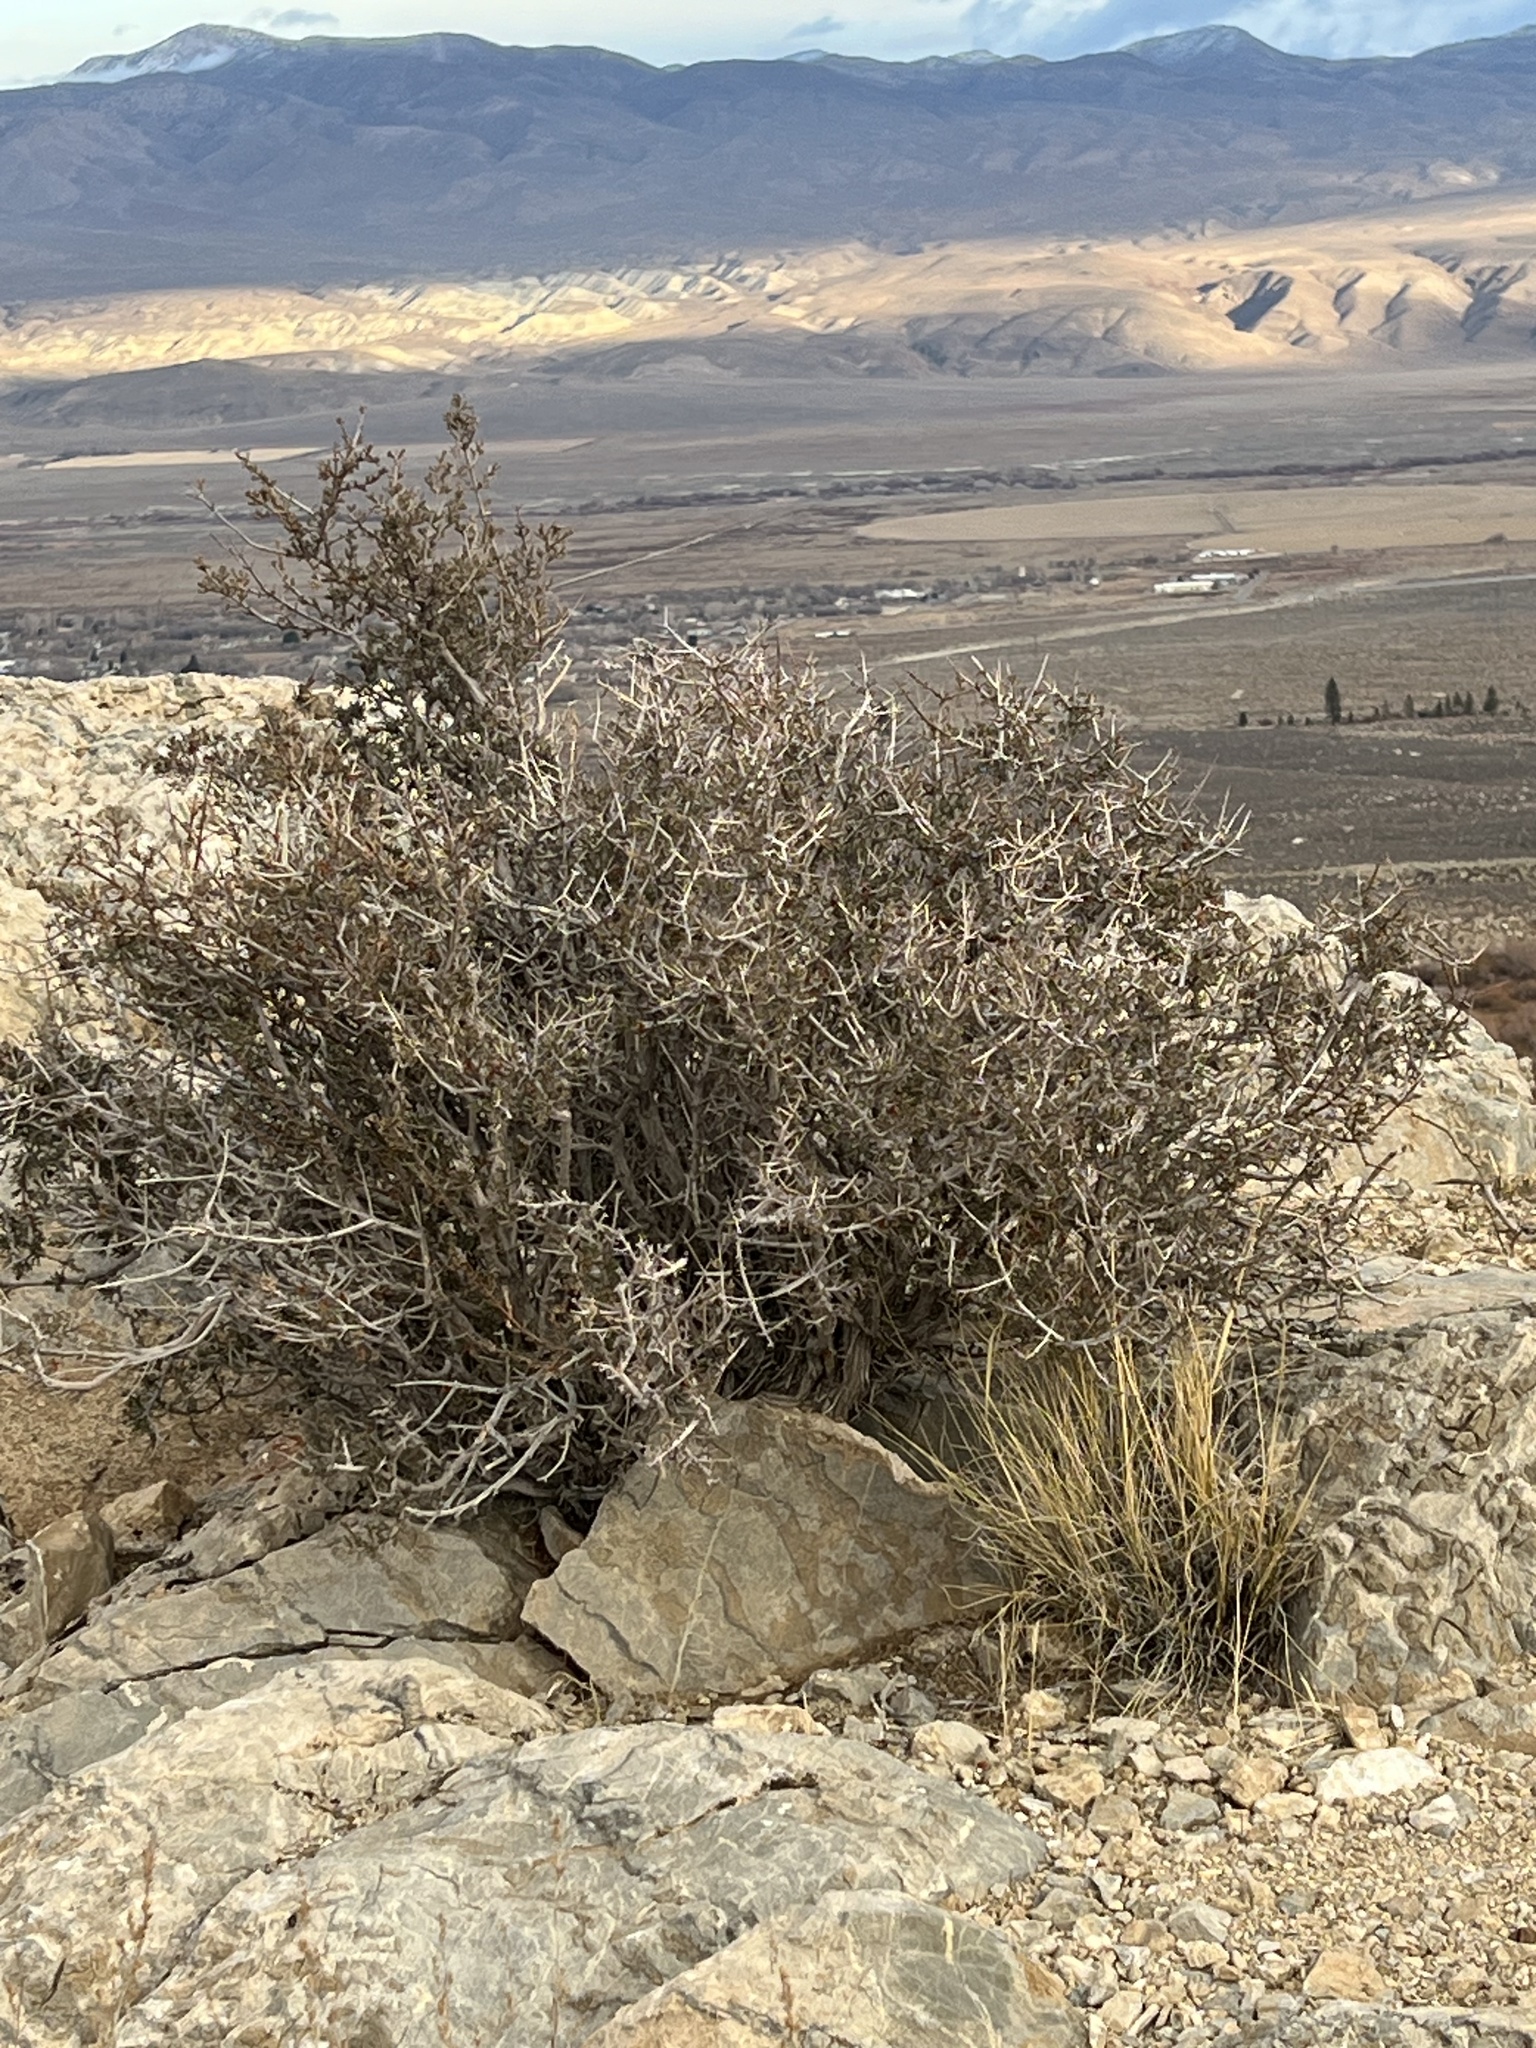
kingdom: Plantae
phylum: Tracheophyta
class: Magnoliopsida
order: Rosales
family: Rosaceae
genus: Coleogyne
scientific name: Coleogyne ramosissima
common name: Blackbrush
